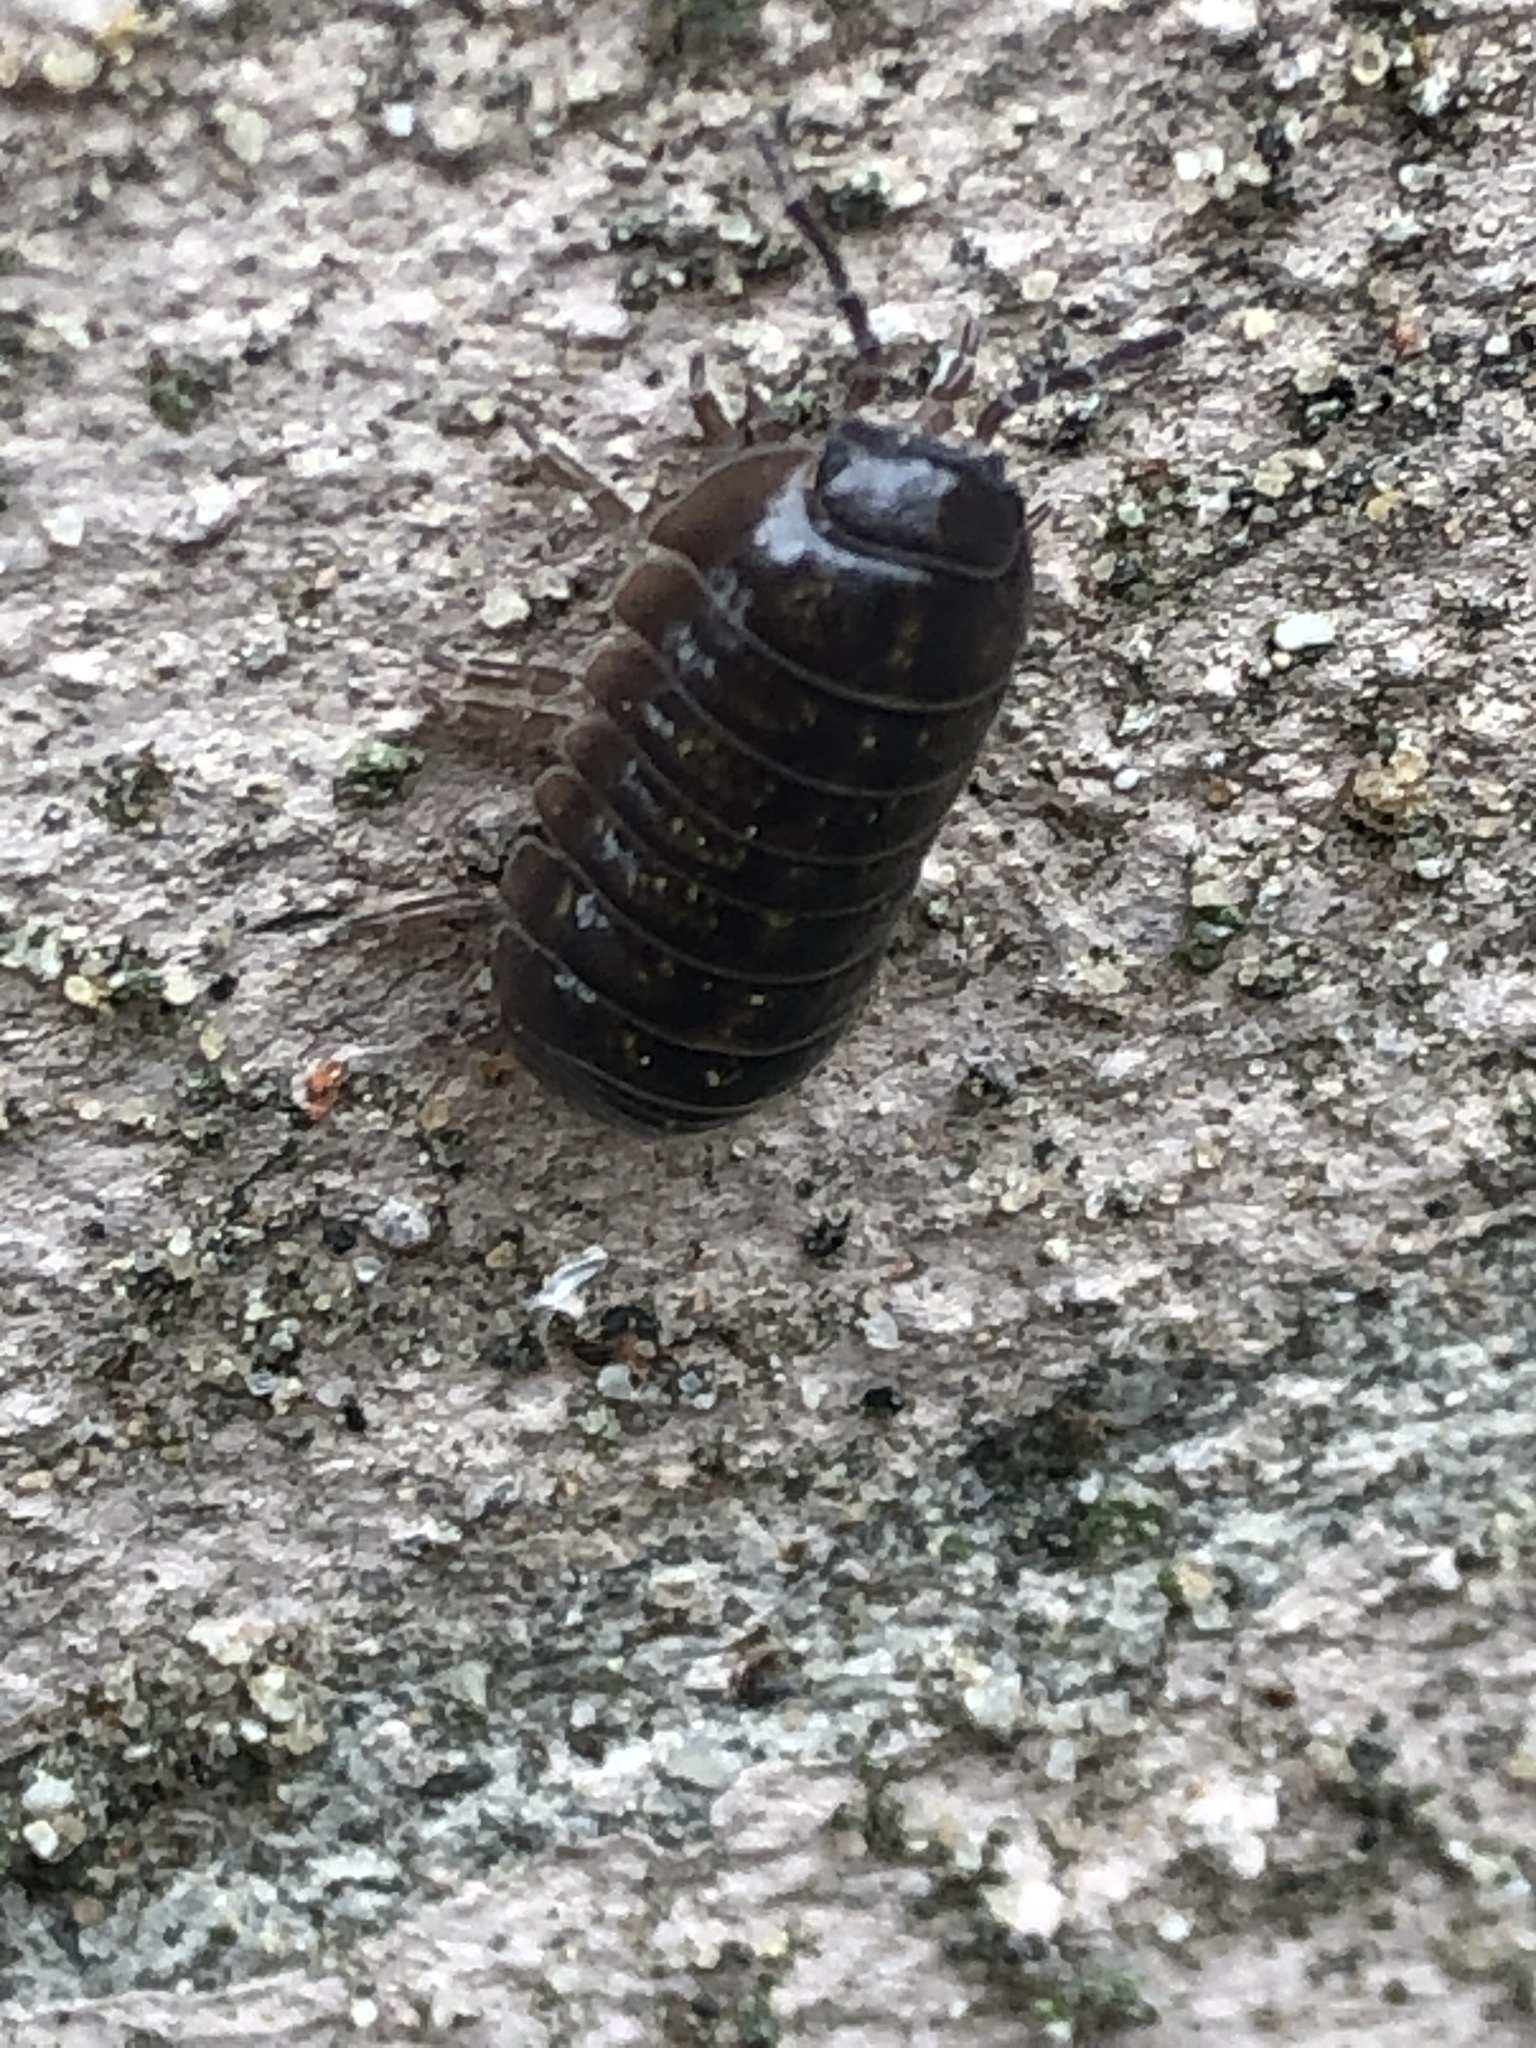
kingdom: Animalia
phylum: Arthropoda
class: Malacostraca
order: Isopoda
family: Armadillidiidae
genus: Armadillidium
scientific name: Armadillidium vulgare
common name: Common pill woodlouse
